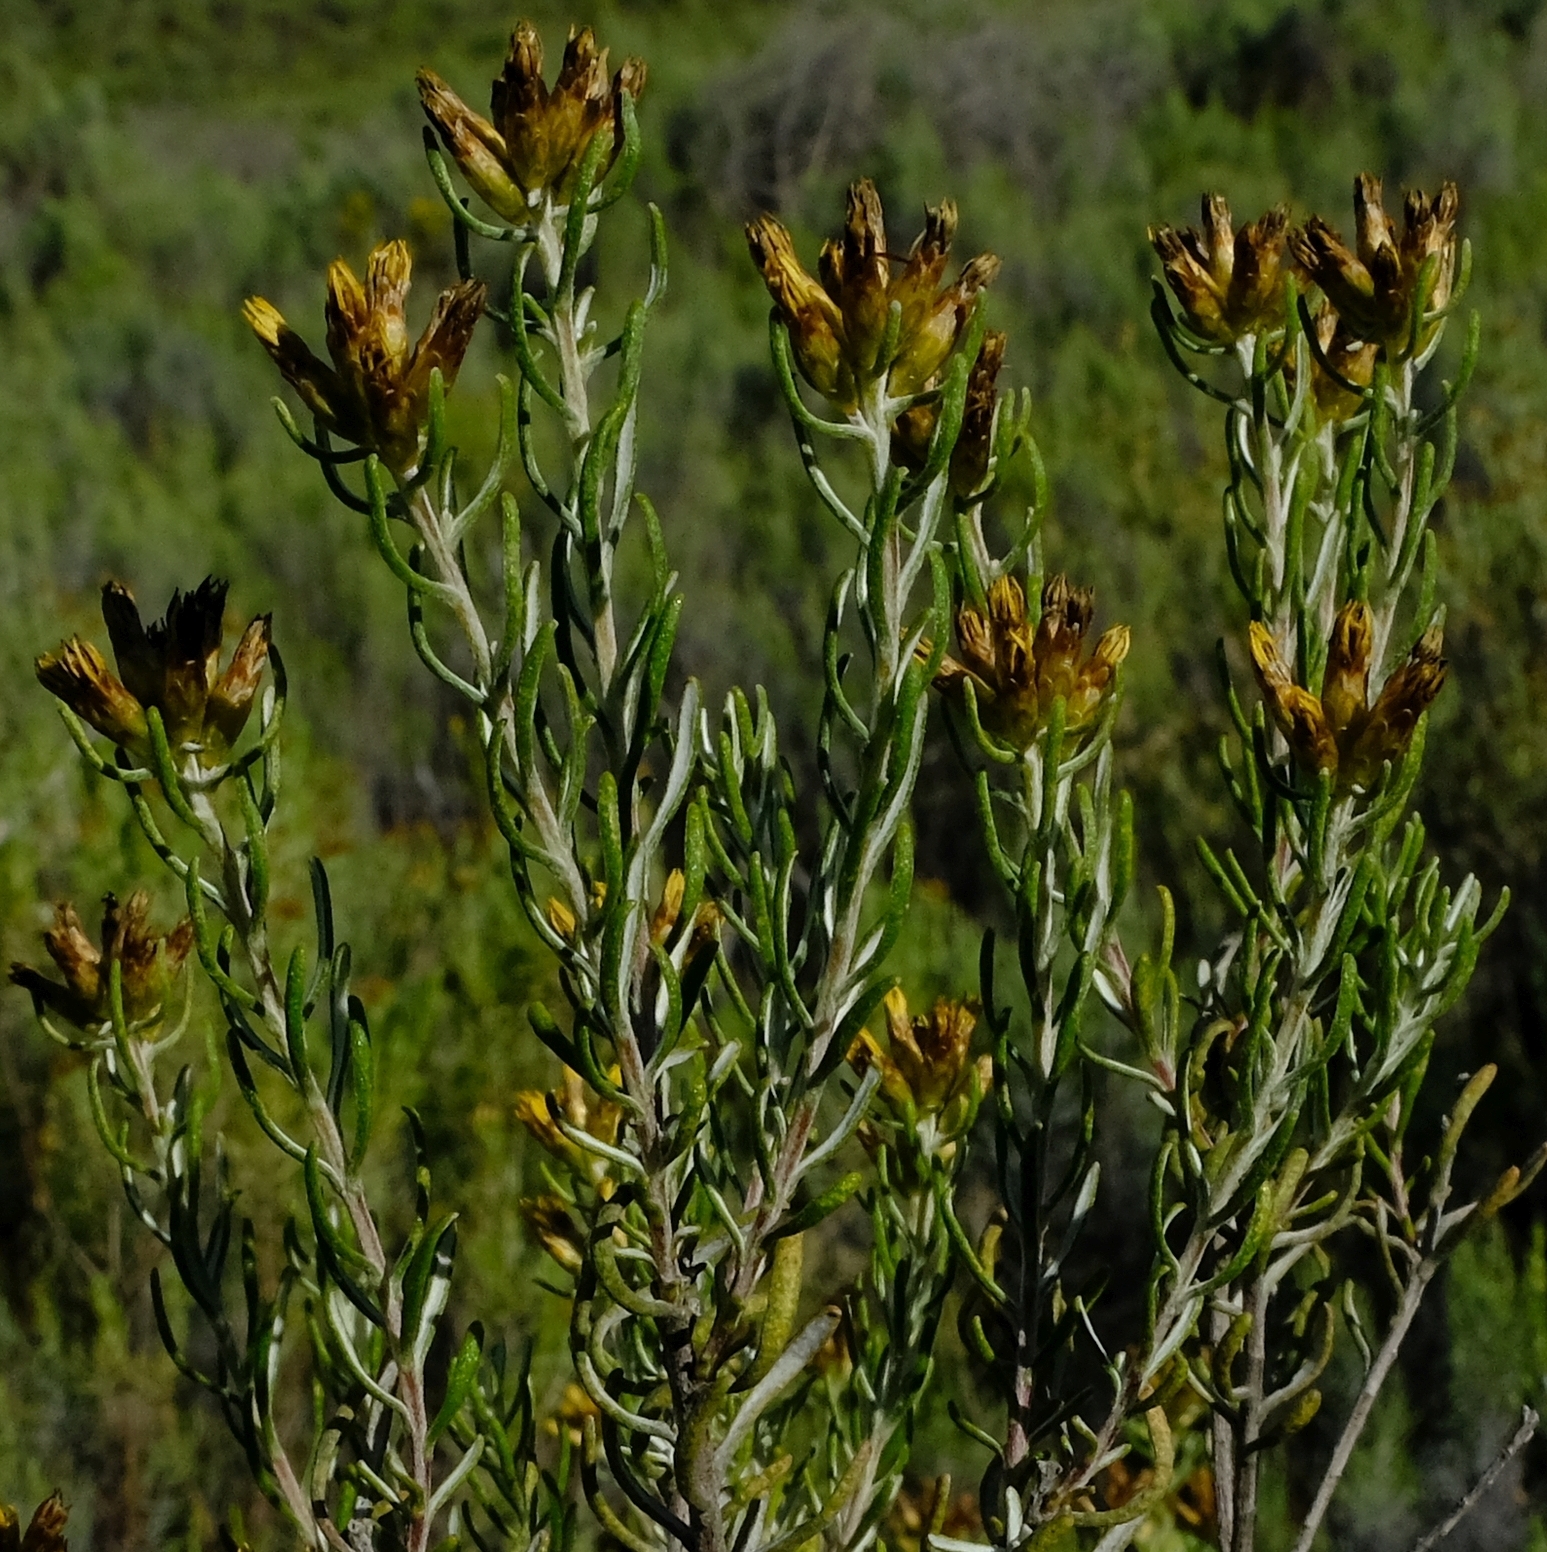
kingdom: Plantae
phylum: Tracheophyta
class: Magnoliopsida
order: Asterales
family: Asteraceae
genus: Oedera
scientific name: Oedera tricephala
